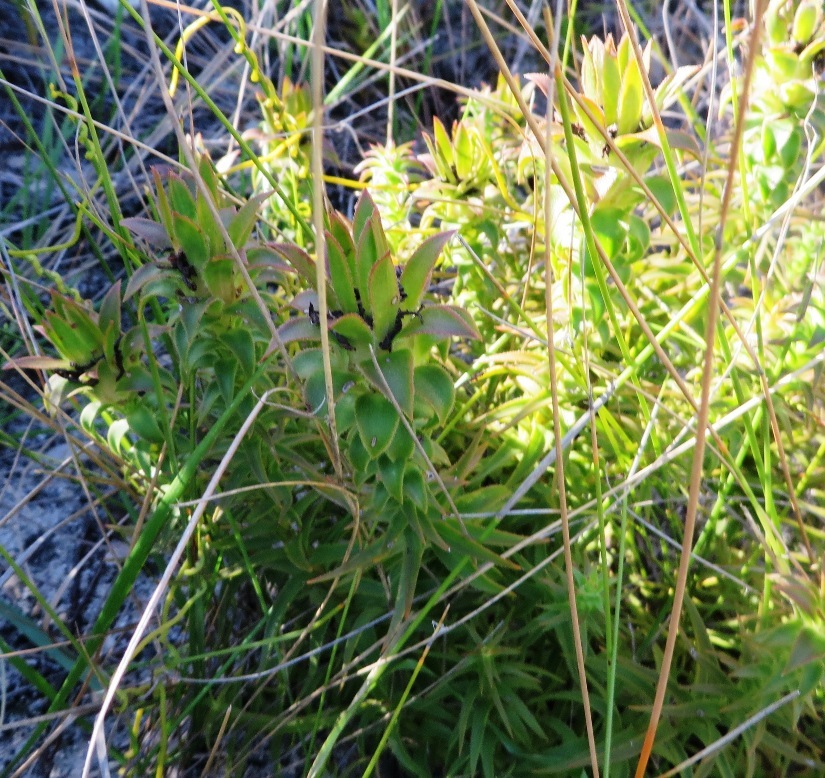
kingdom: Plantae
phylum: Tracheophyta
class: Magnoliopsida
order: Asterales
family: Asteraceae
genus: Oedera
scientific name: Oedera imbricata
